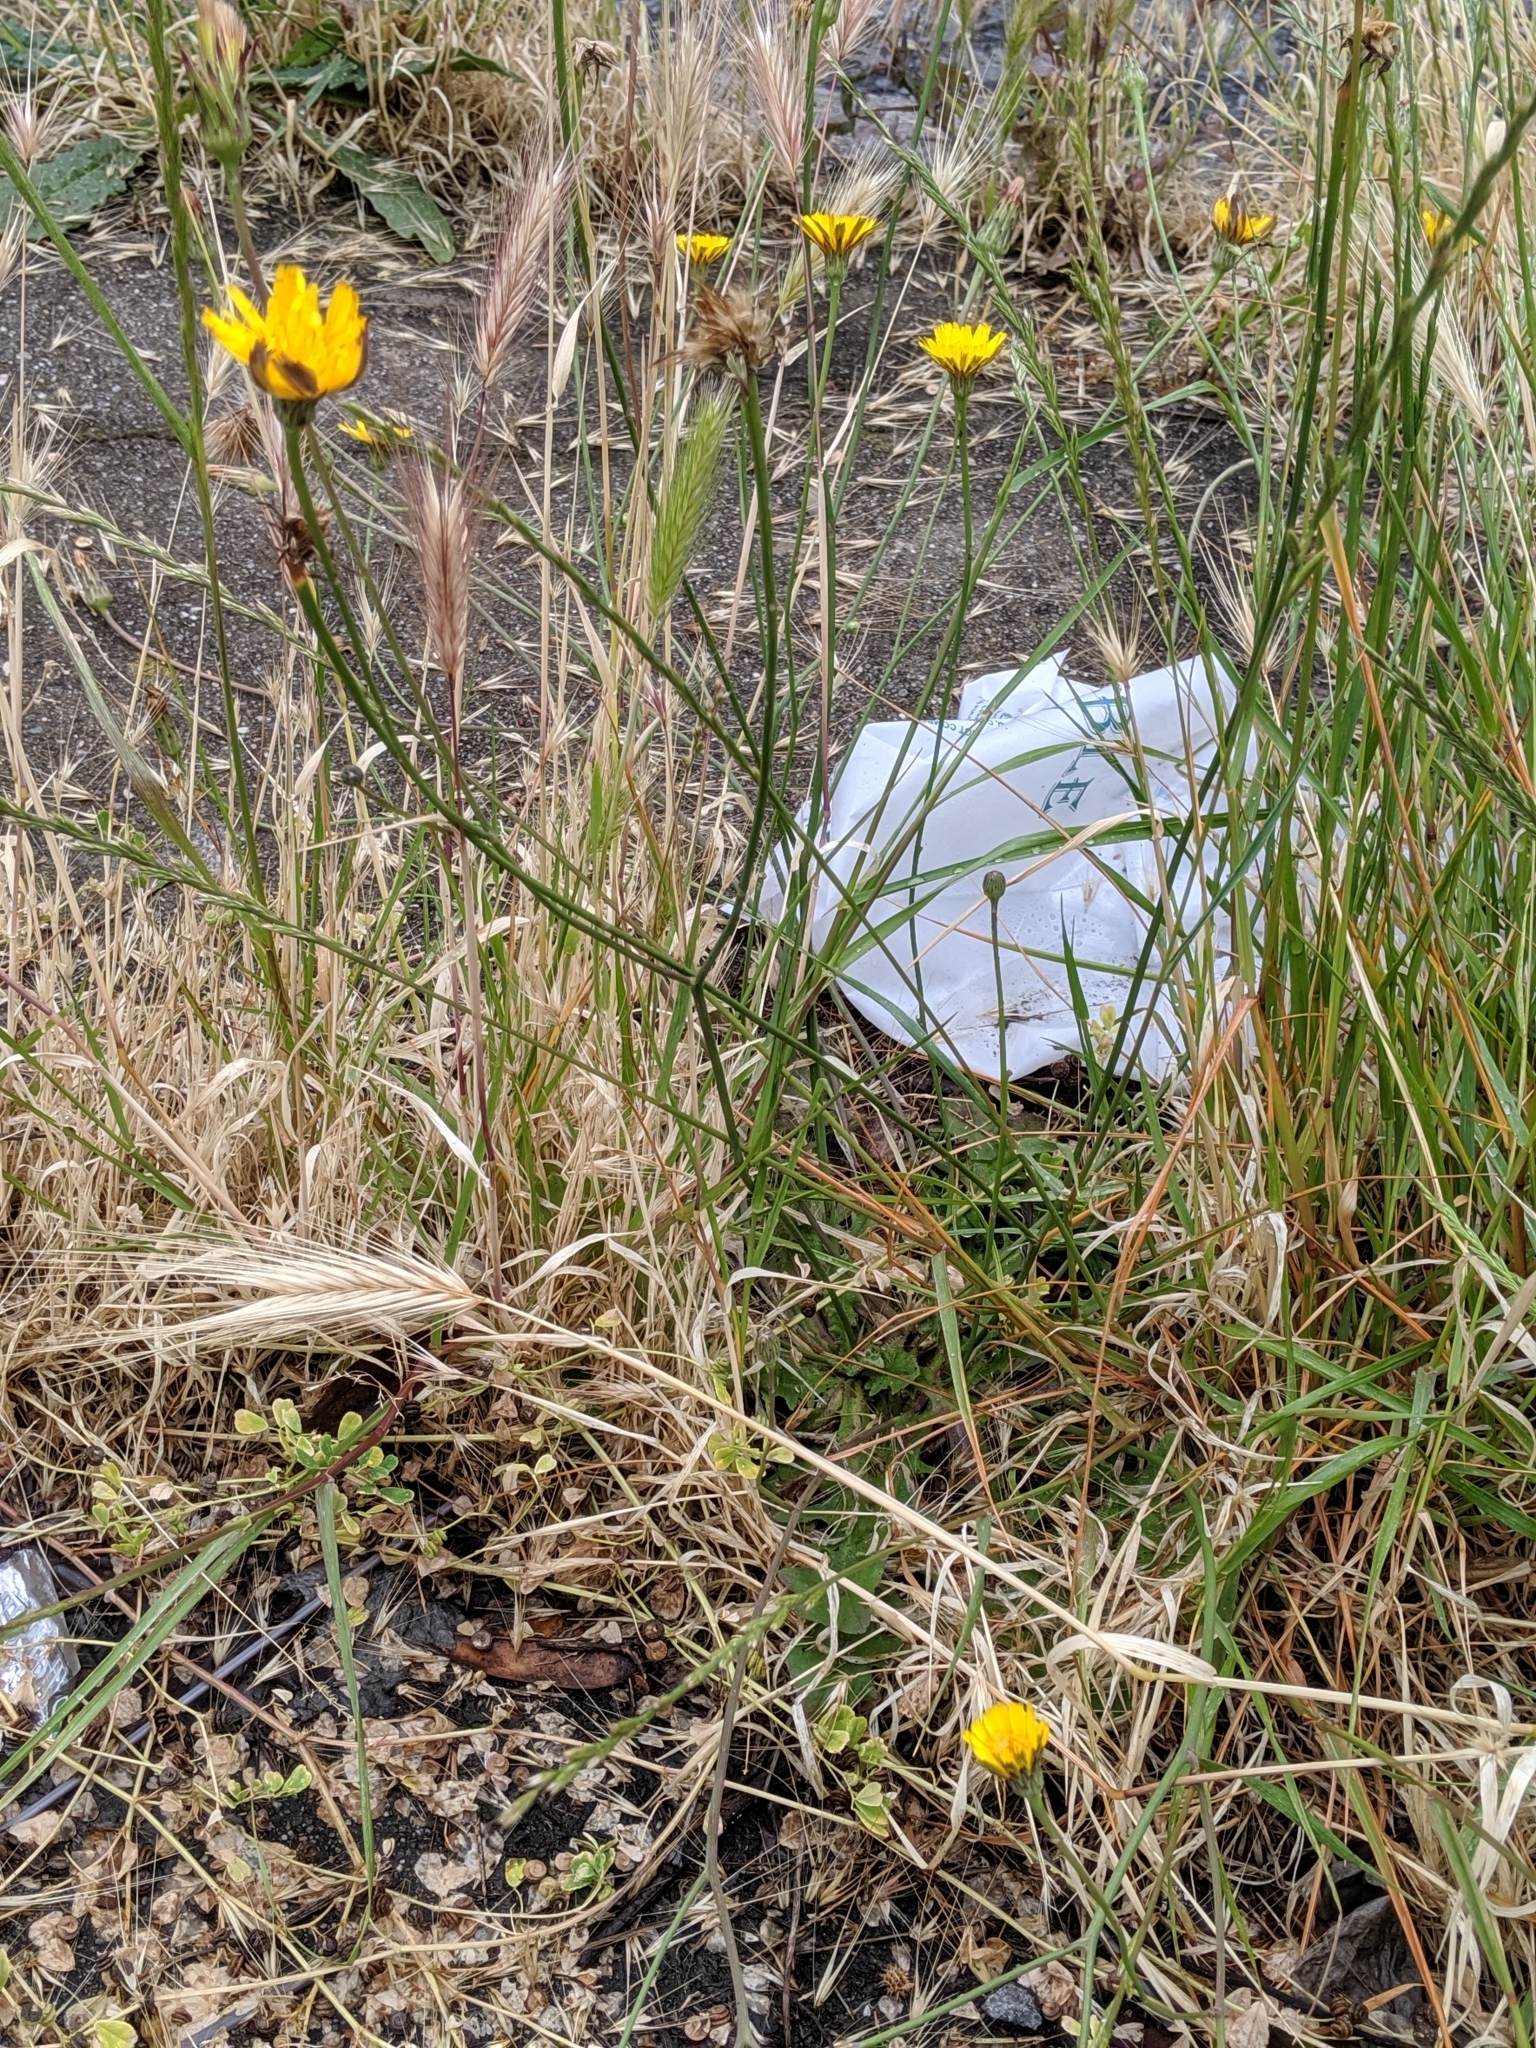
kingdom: Plantae
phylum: Tracheophyta
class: Magnoliopsida
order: Asterales
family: Asteraceae
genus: Hypochaeris
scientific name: Hypochaeris radicata
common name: Flatweed
